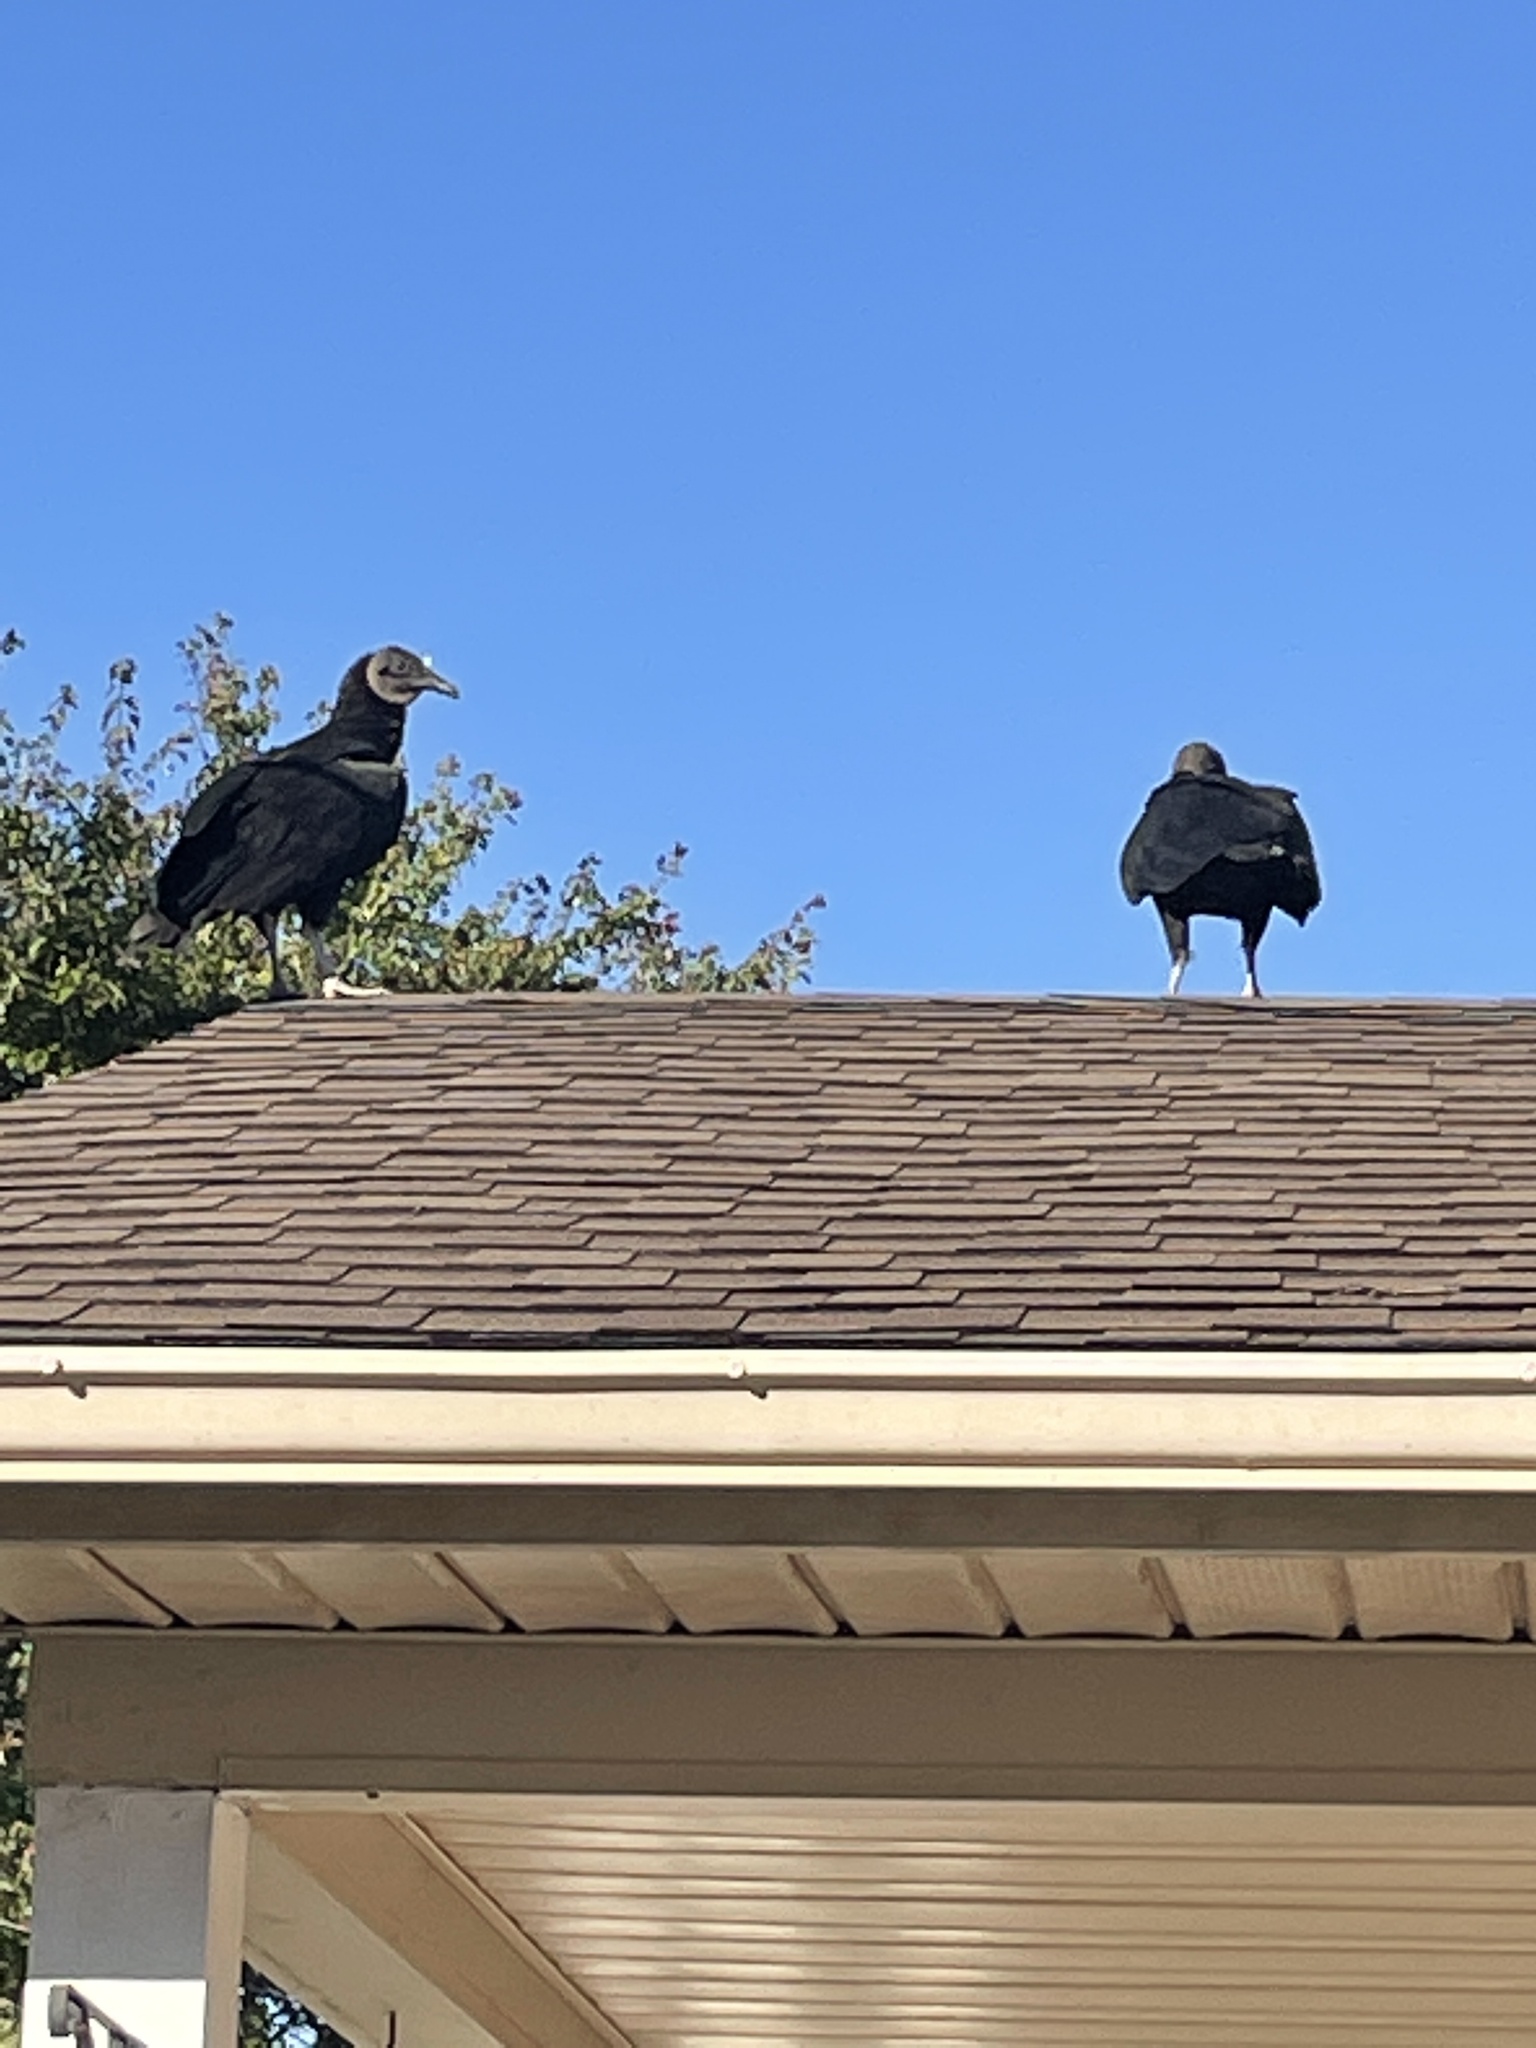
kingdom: Animalia
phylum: Chordata
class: Aves
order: Accipitriformes
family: Cathartidae
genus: Coragyps
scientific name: Coragyps atratus
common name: Black vulture
